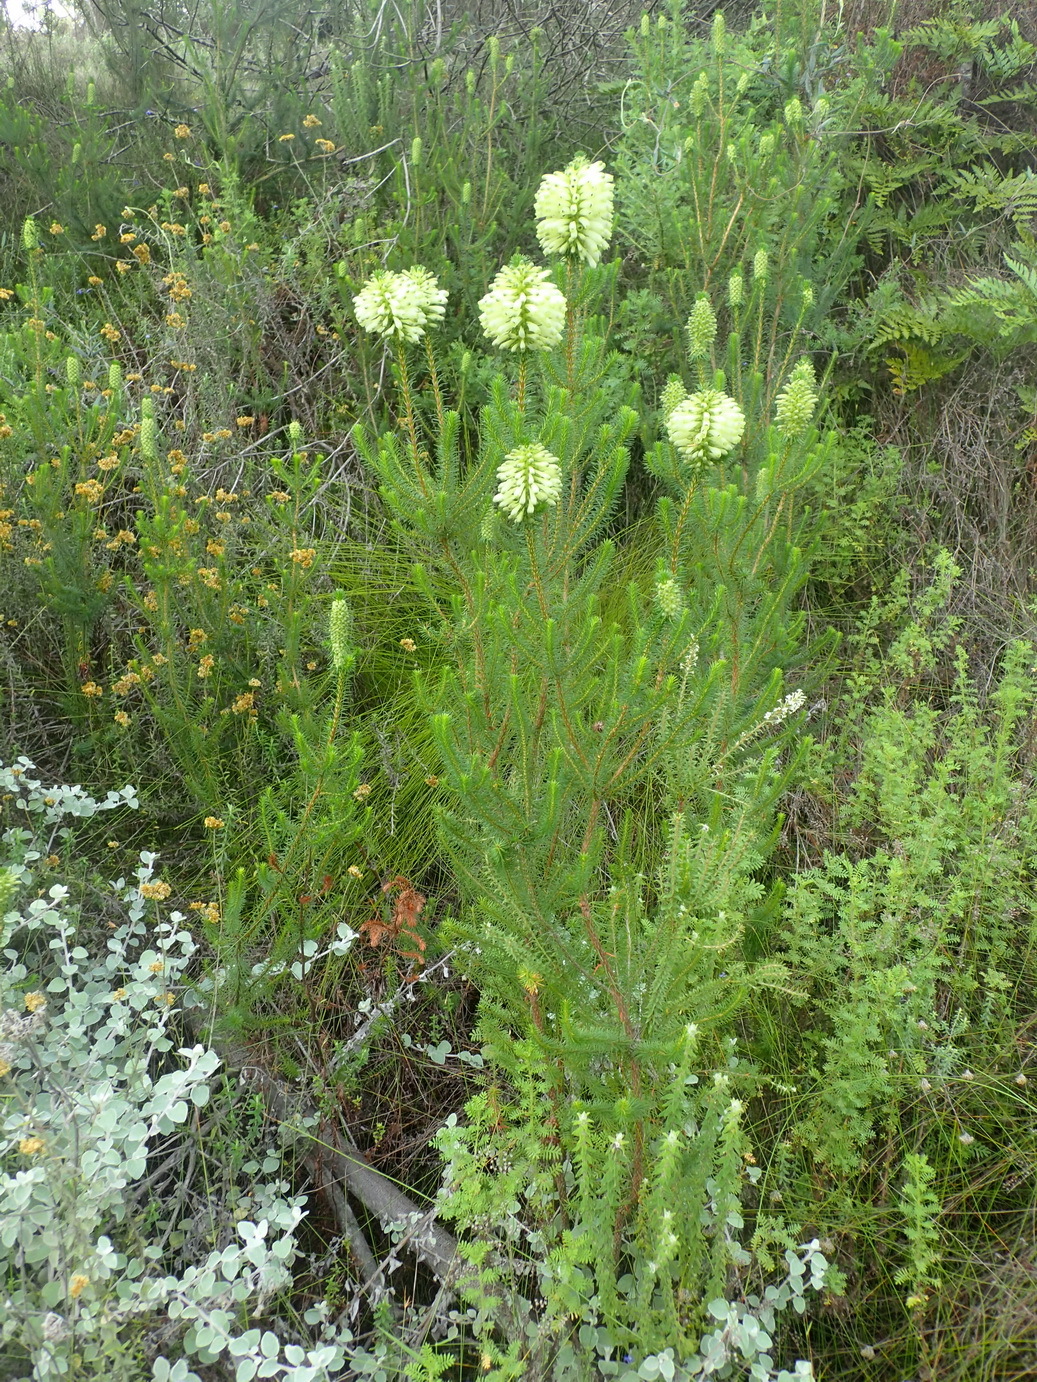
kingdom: Plantae
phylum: Tracheophyta
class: Magnoliopsida
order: Ericales
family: Ericaceae
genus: Erica
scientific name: Erica sessiliflora
